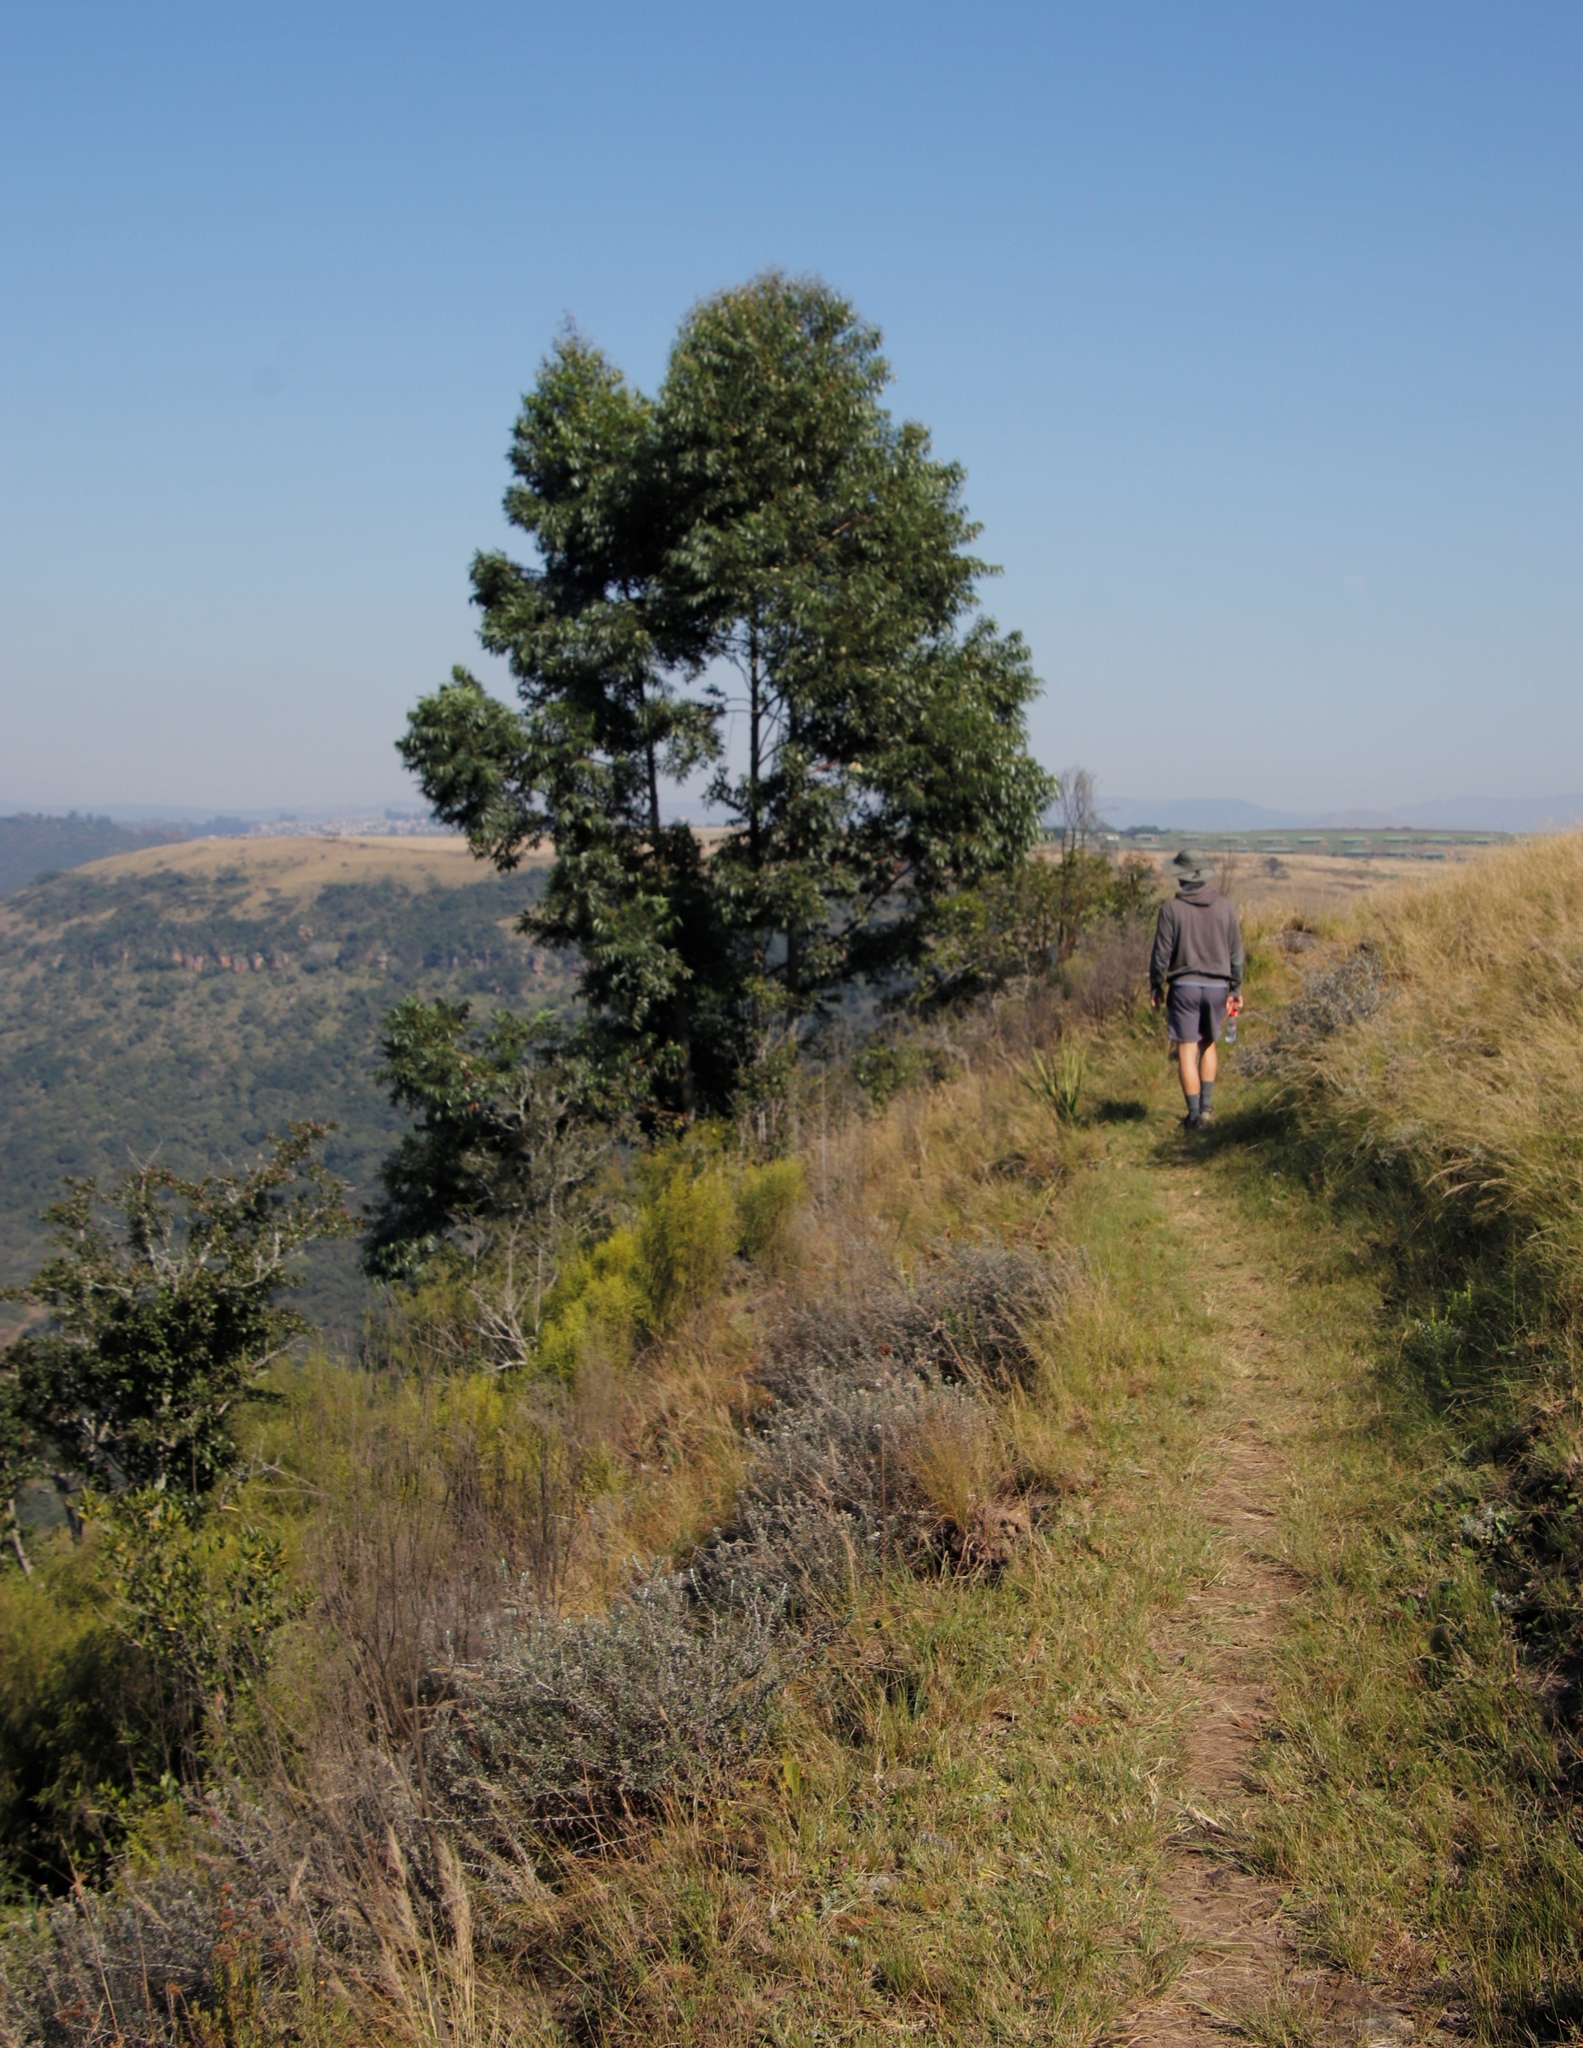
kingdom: Plantae
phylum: Tracheophyta
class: Magnoliopsida
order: Fabales
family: Fabaceae
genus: Acacia
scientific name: Acacia mearnsii
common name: Black wattle
